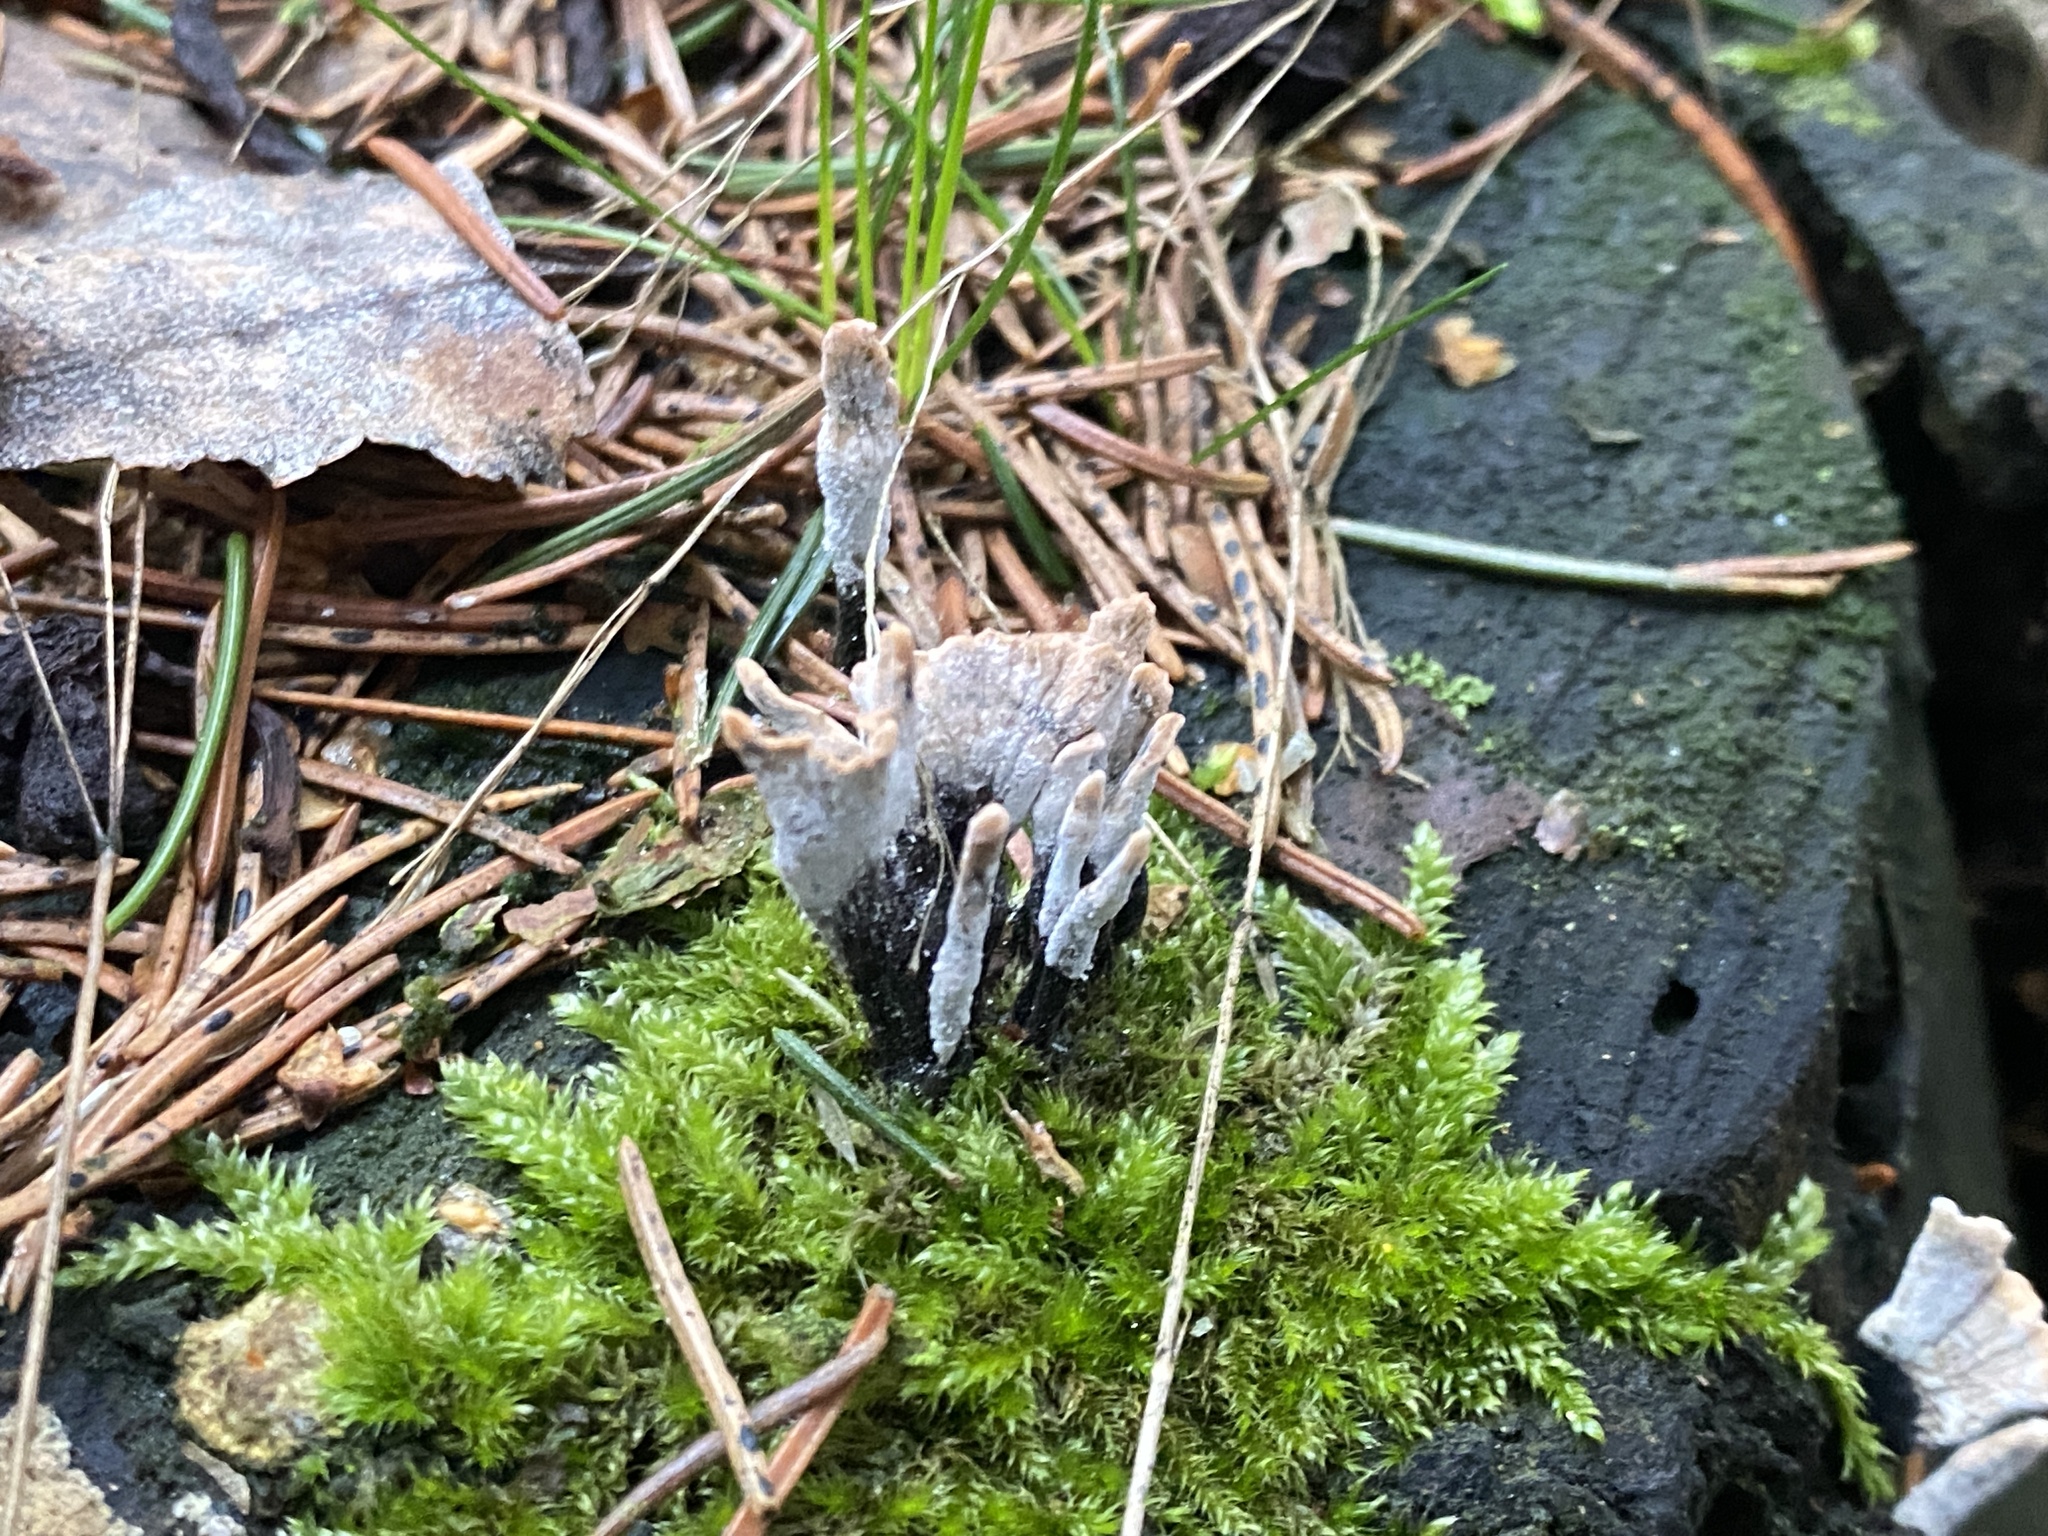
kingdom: Fungi
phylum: Ascomycota
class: Sordariomycetes
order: Xylariales
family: Xylariaceae
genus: Xylaria
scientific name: Xylaria hypoxylon
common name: Candle-snuff fungus
